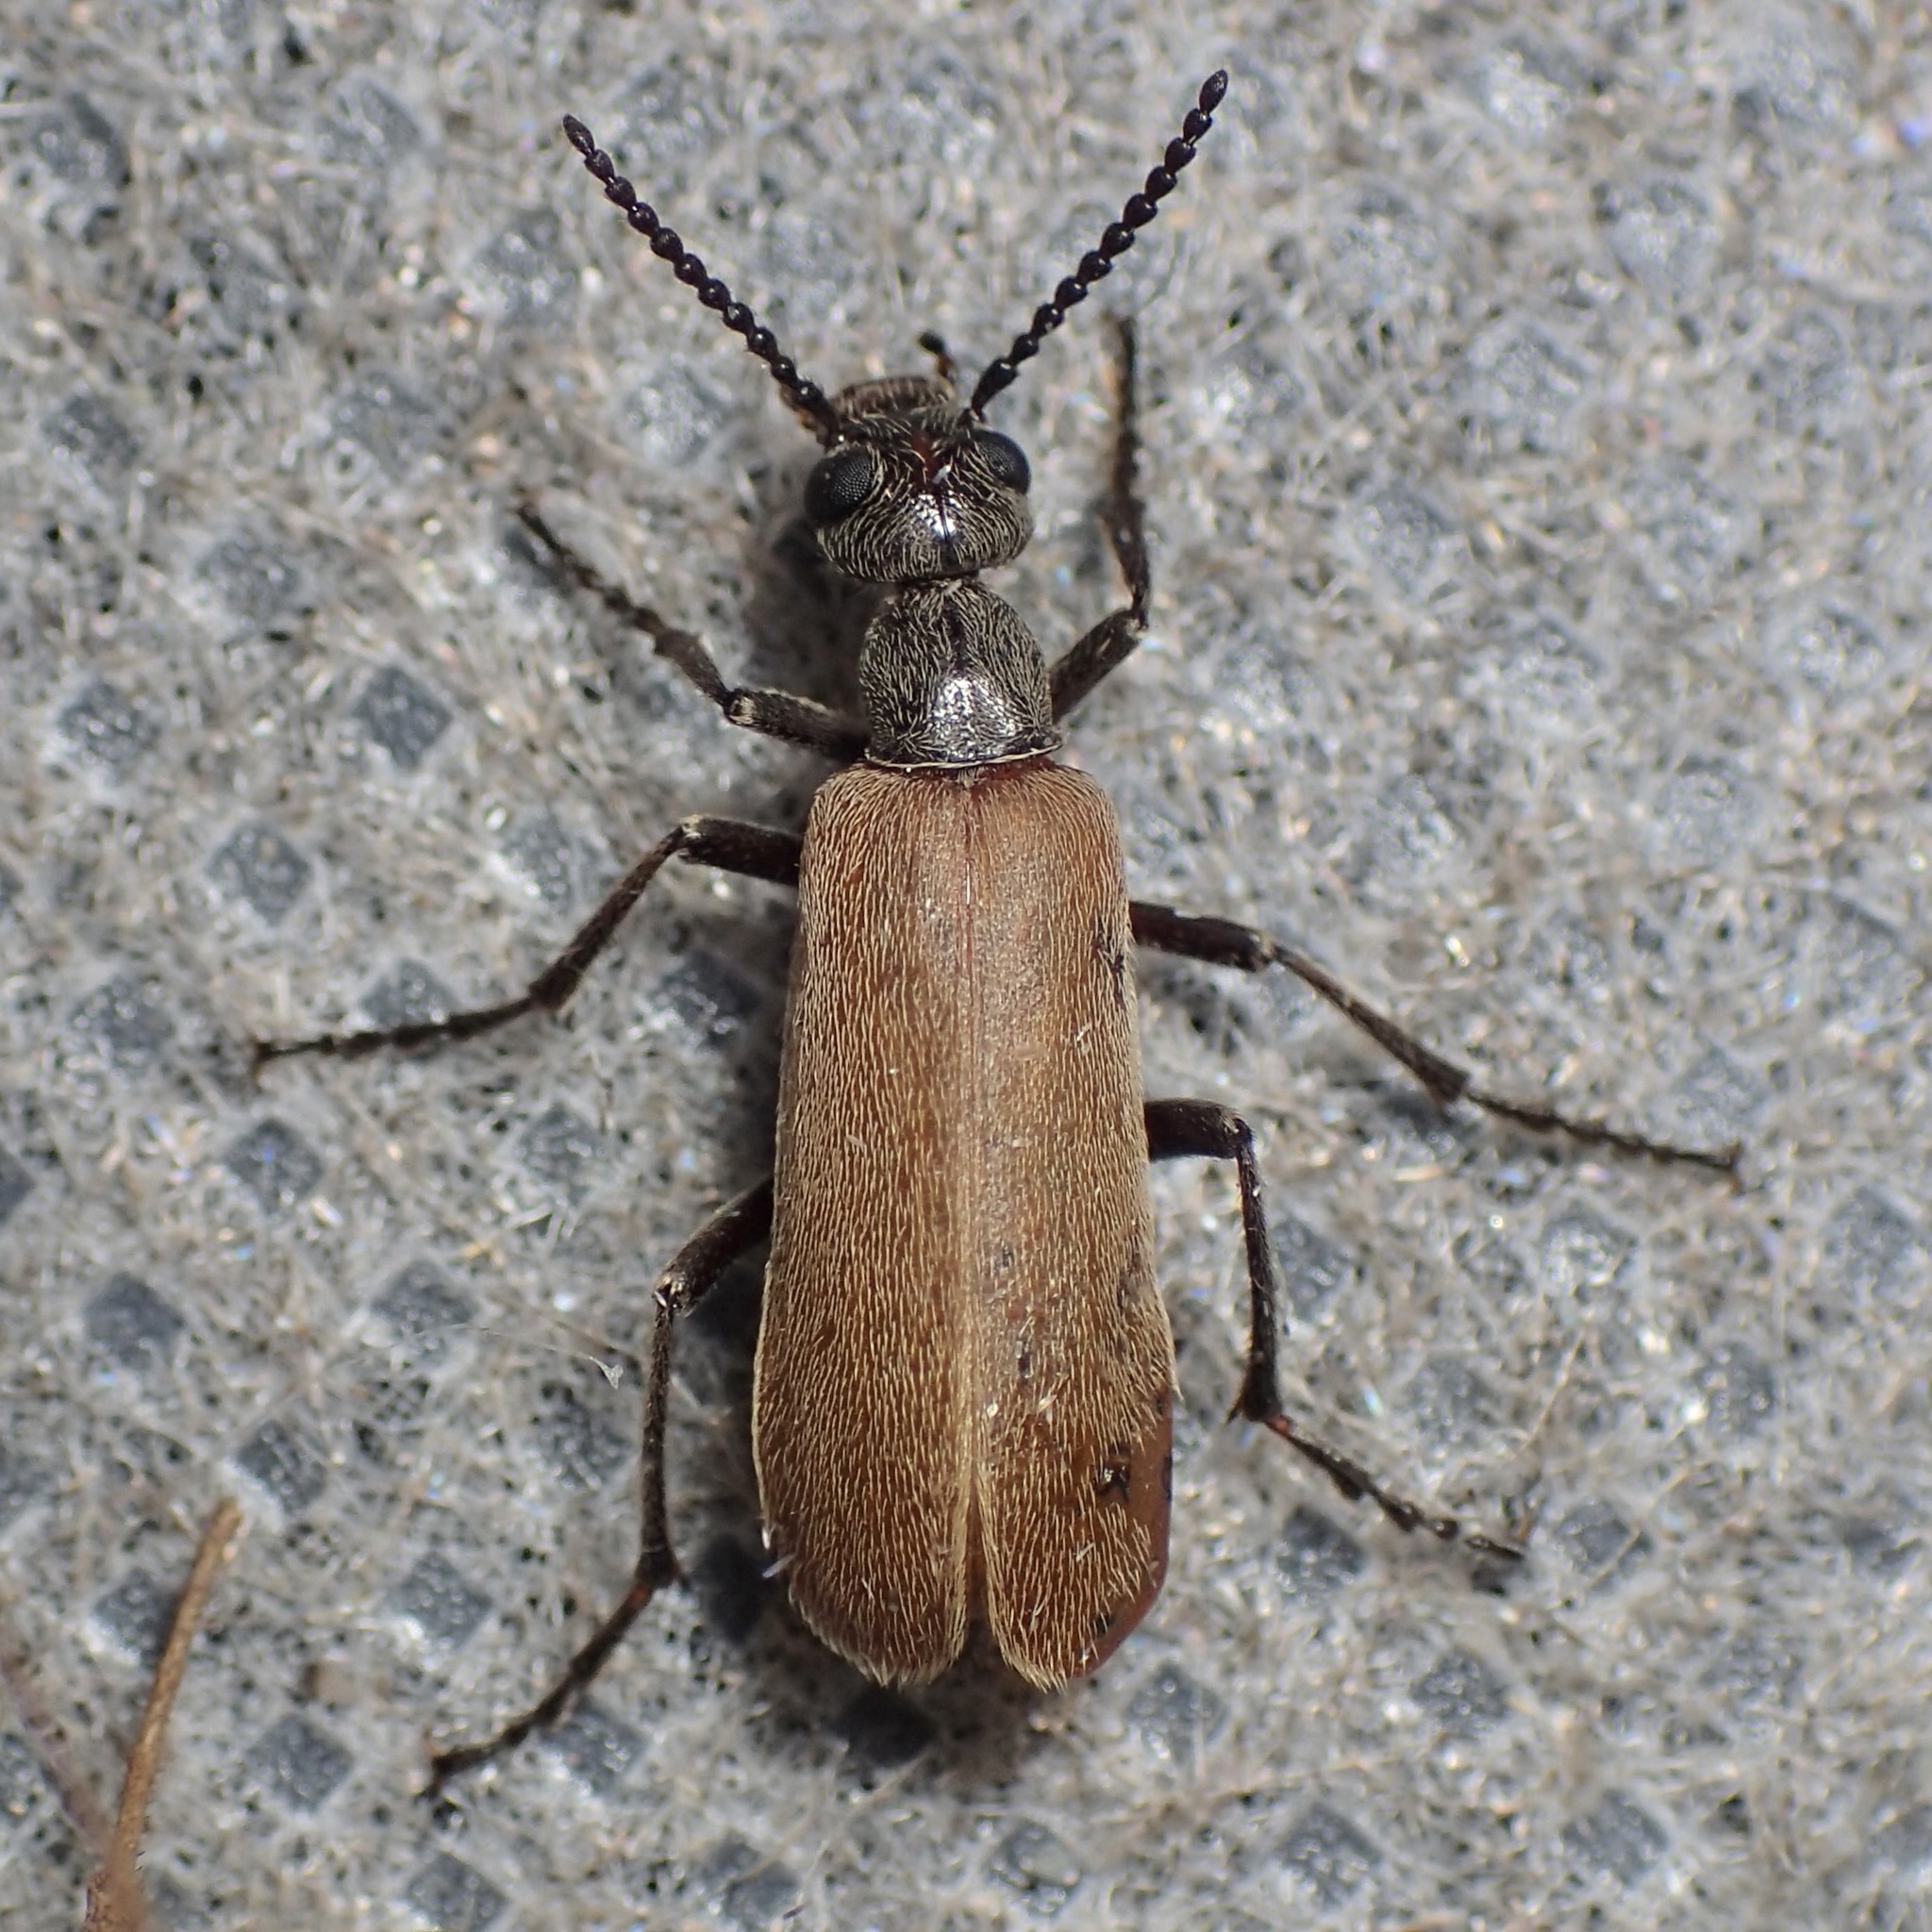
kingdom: Animalia
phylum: Arthropoda
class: Insecta
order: Coleoptera
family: Meloidae
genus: Epicauta
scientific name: Epicauta ochrea
